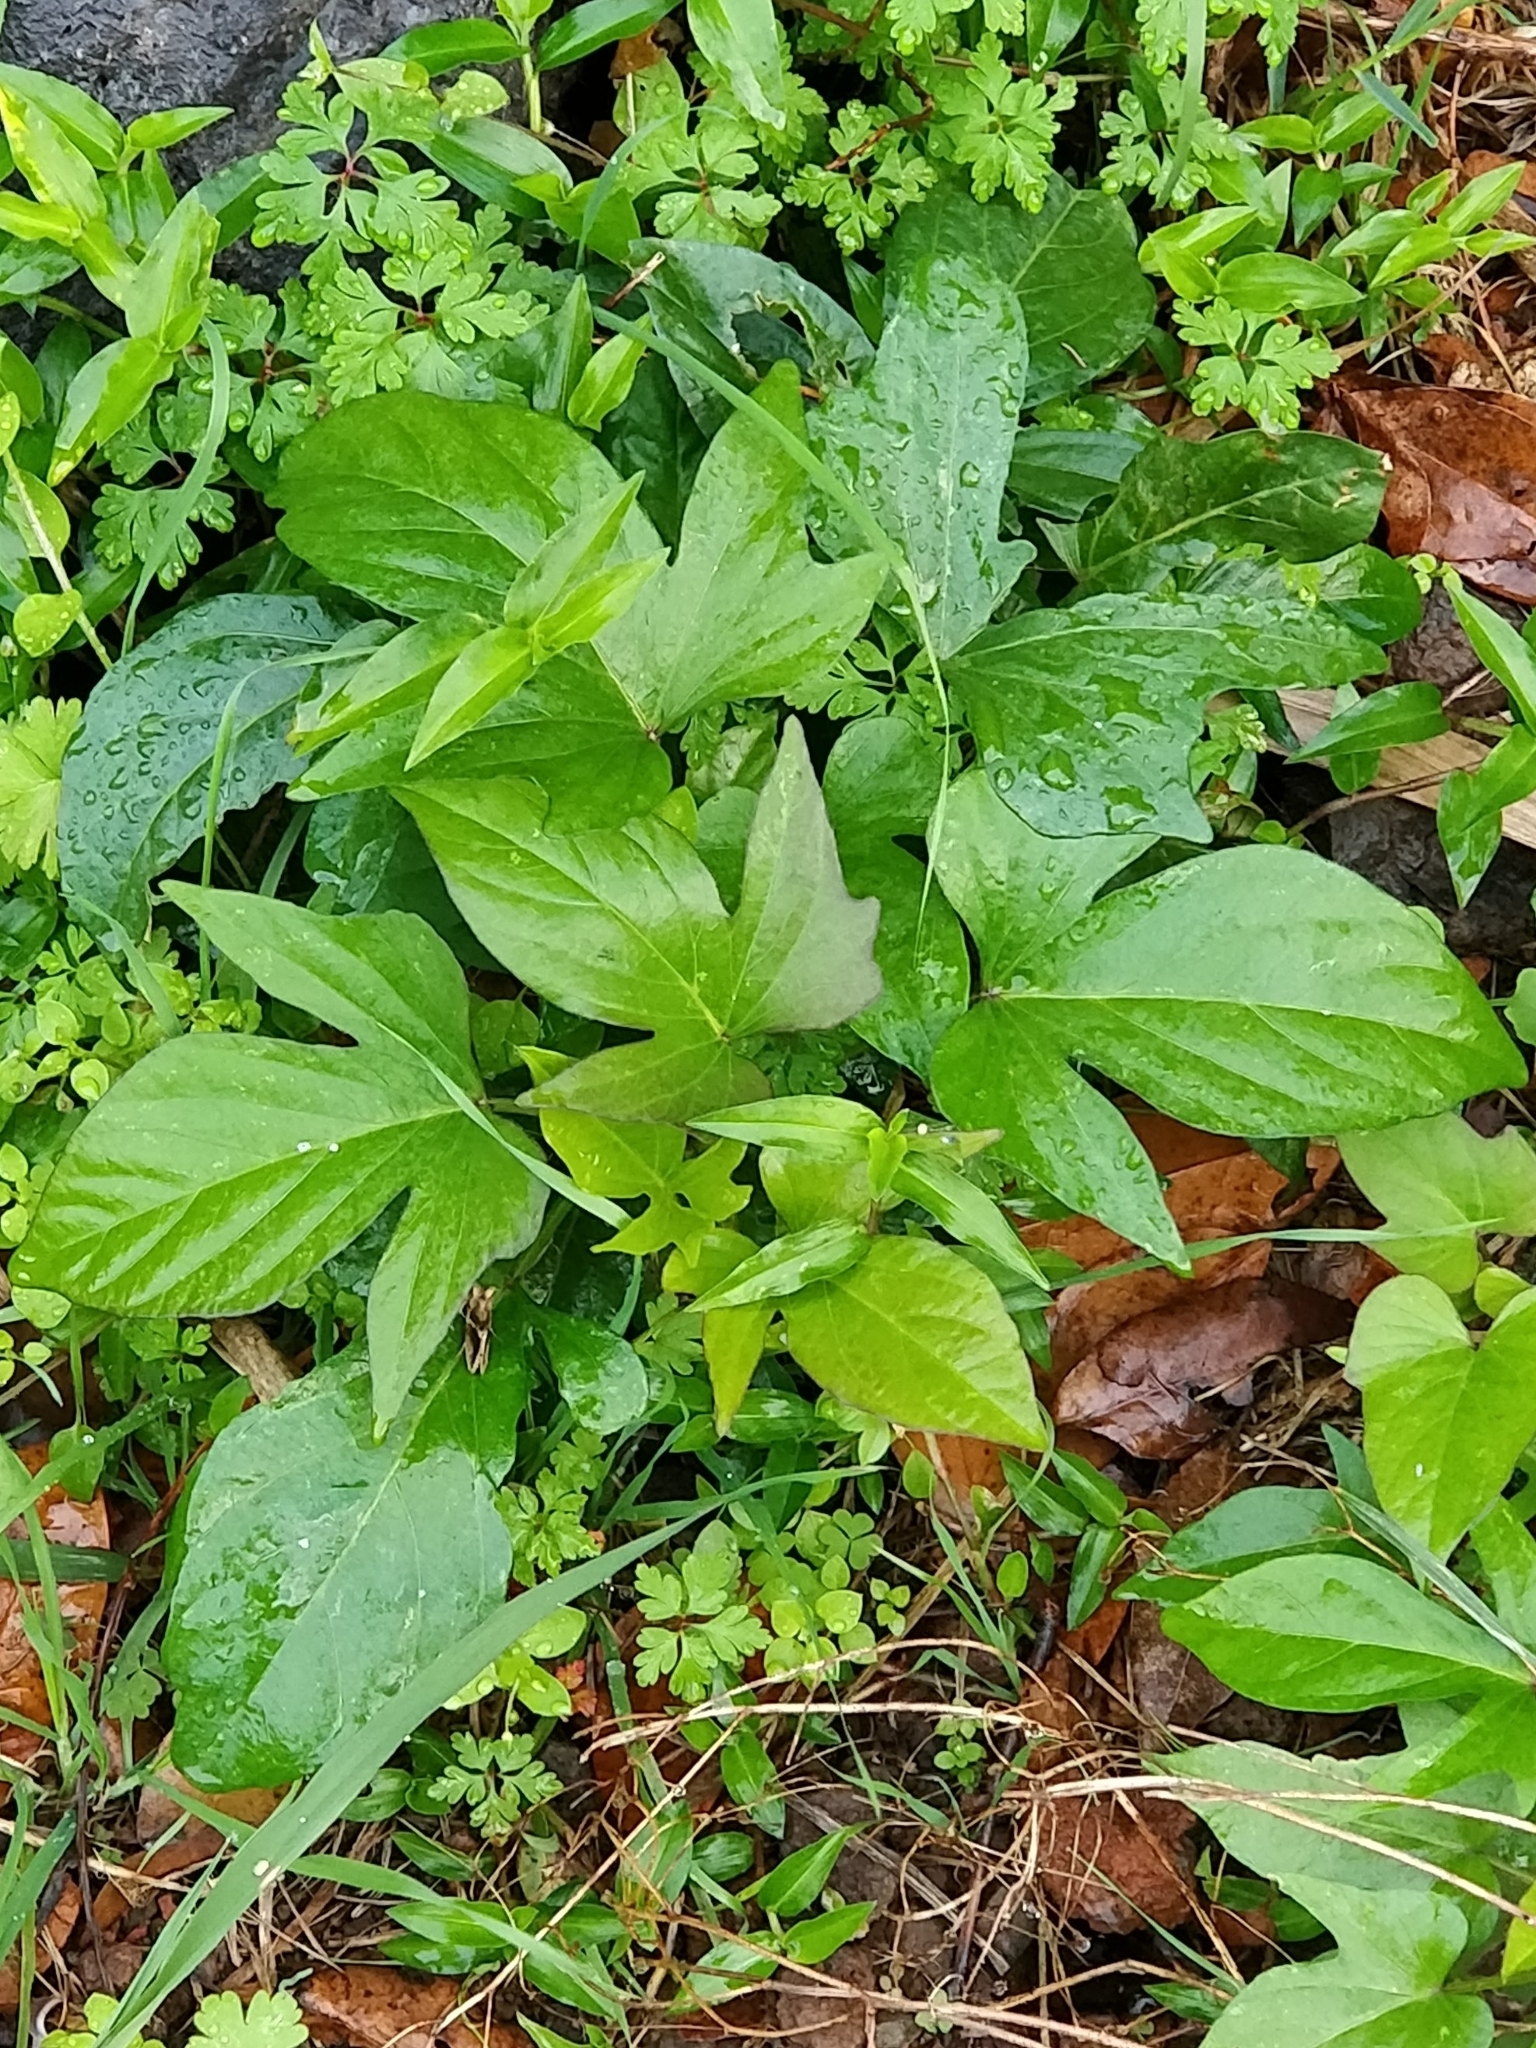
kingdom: Plantae
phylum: Tracheophyta
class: Magnoliopsida
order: Solanales
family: Convolvulaceae
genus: Ipomoea
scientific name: Ipomoea batatas
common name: Sweet-potato
